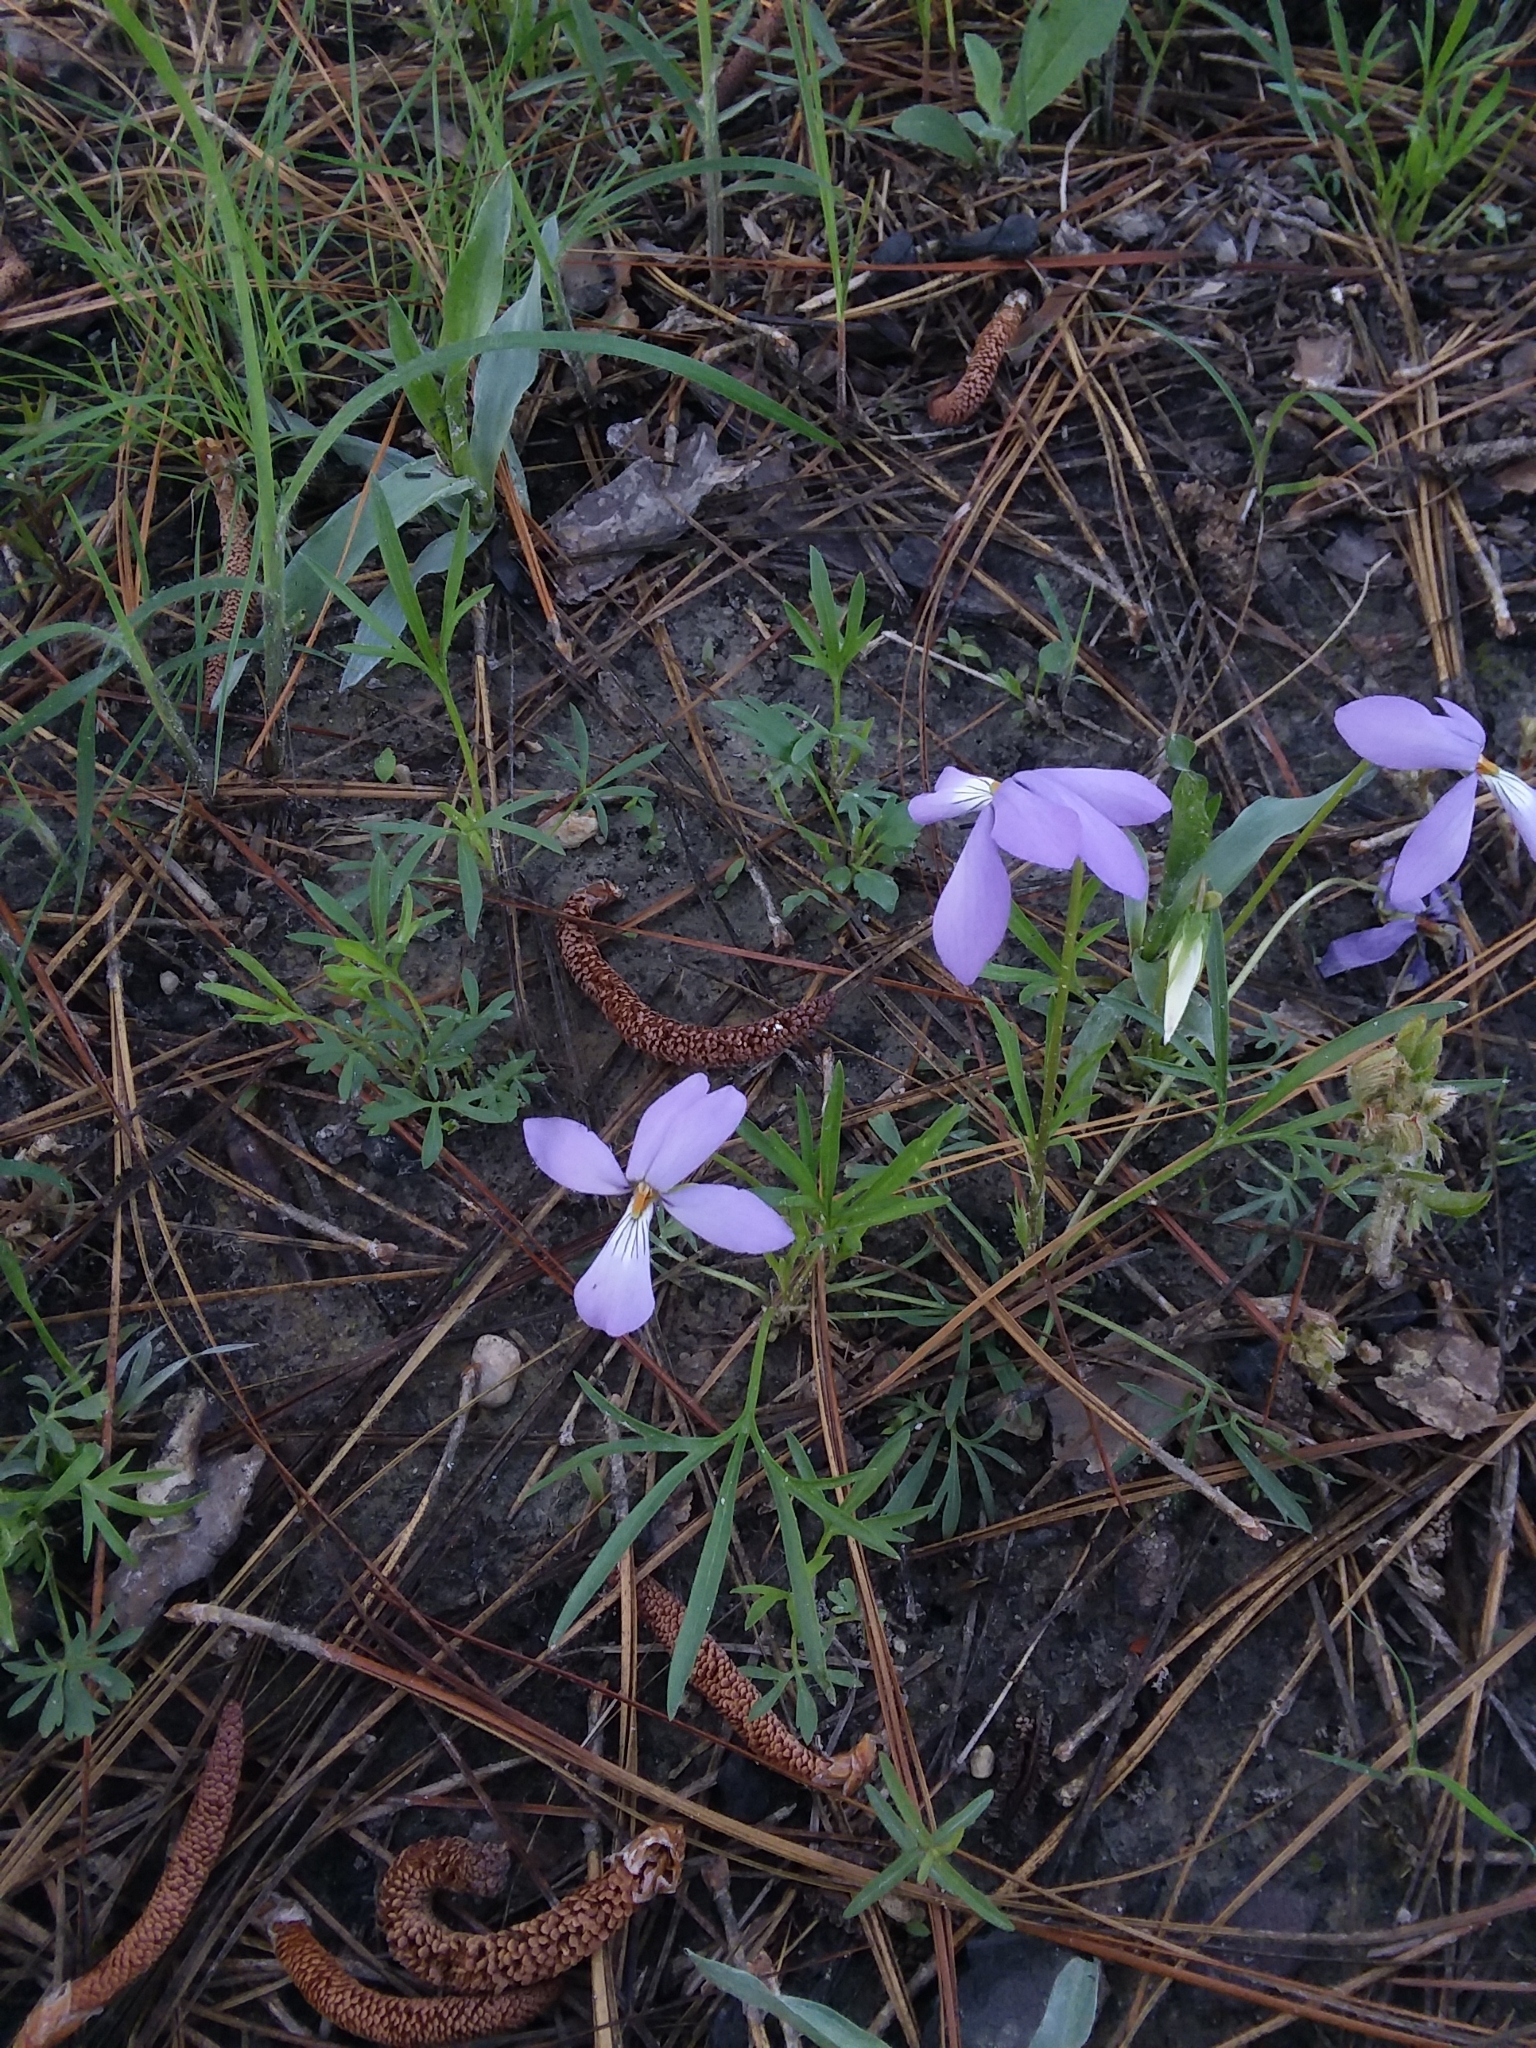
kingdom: Plantae
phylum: Tracheophyta
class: Magnoliopsida
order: Malpighiales
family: Violaceae
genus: Viola
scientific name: Viola pedata
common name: Pansy violet
